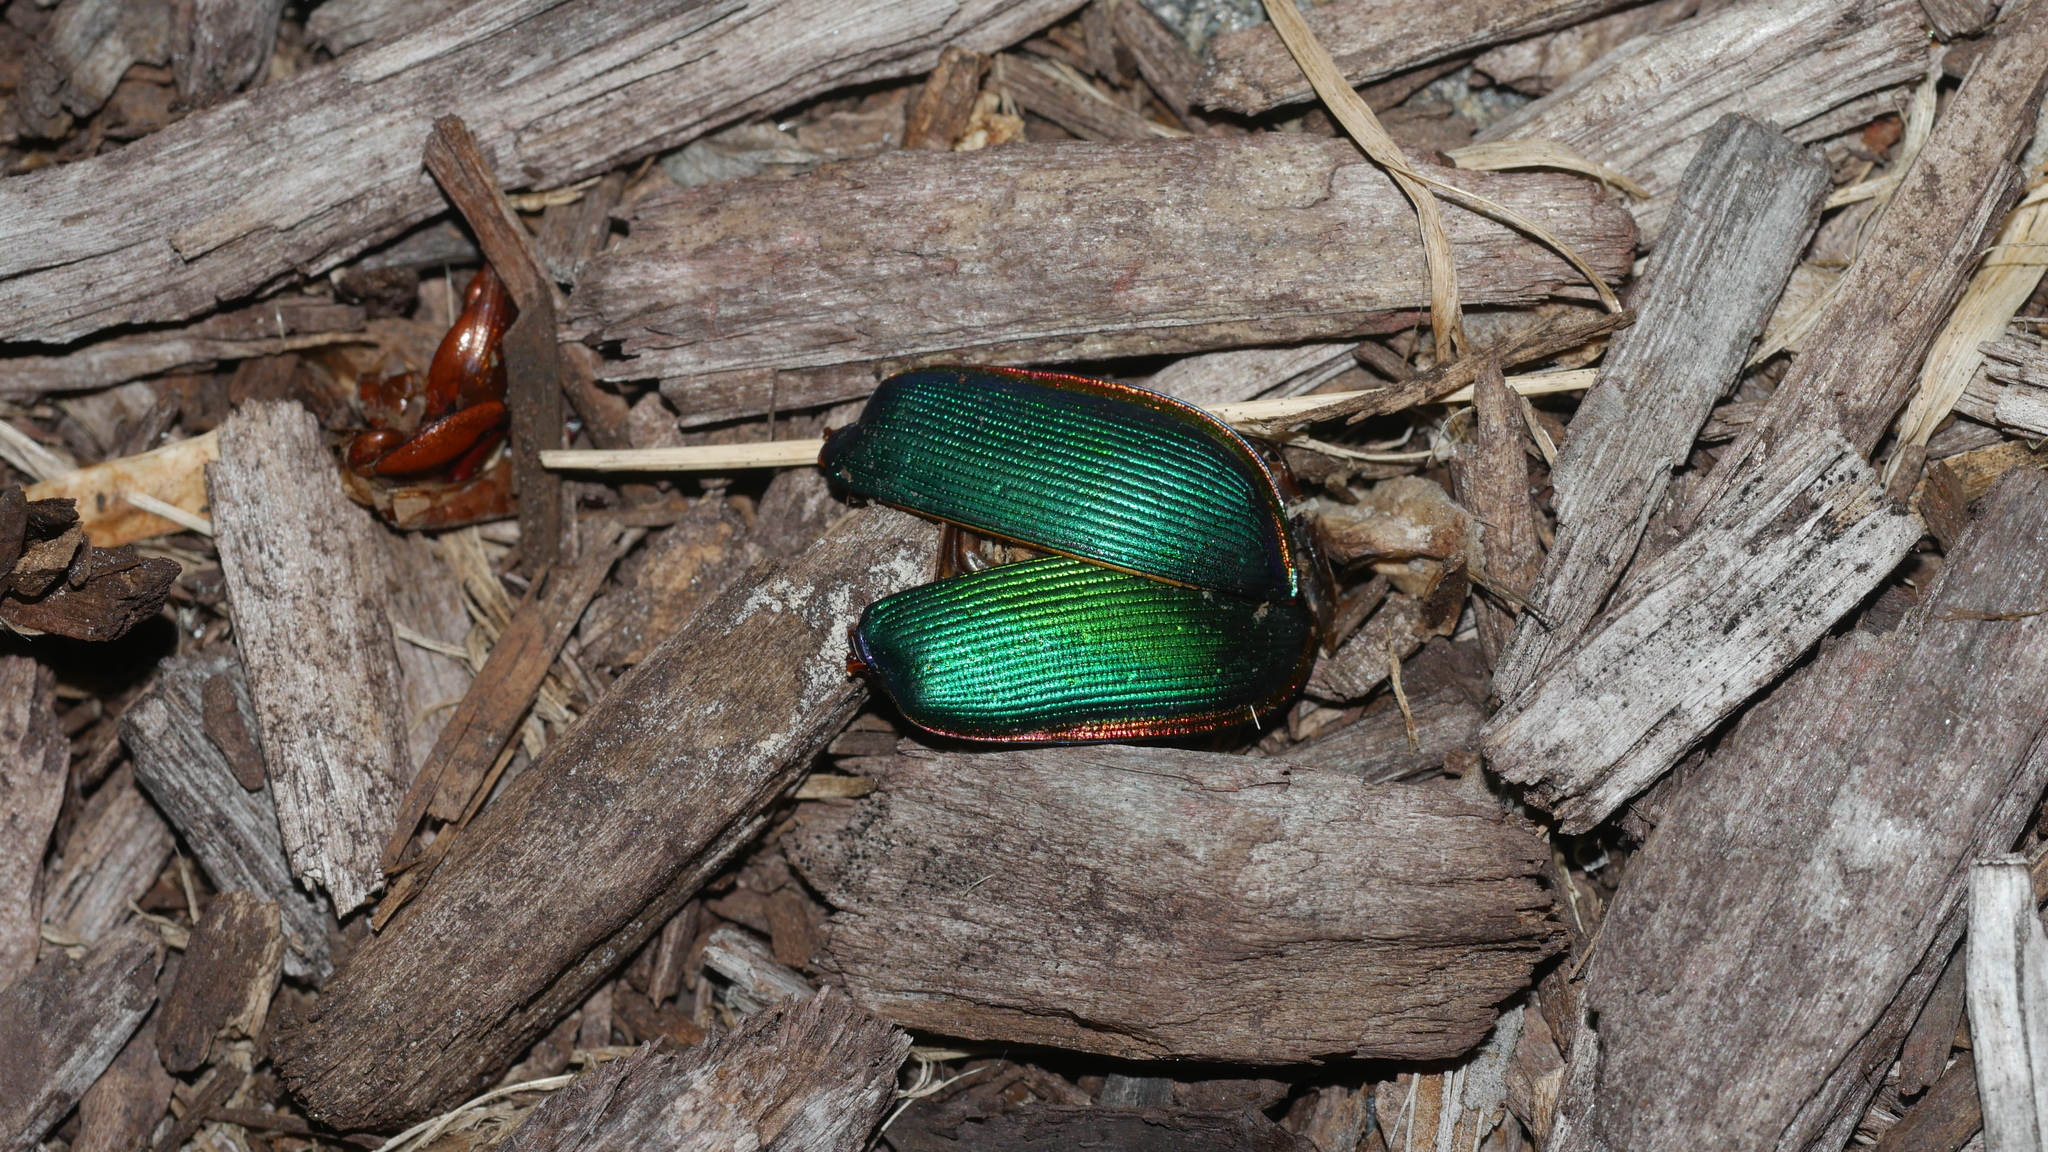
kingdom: Animalia
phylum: Arthropoda
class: Insecta
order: Coleoptera
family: Carabidae
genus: Calosoma
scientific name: Calosoma scrutator
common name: Fiery searcher beetle
